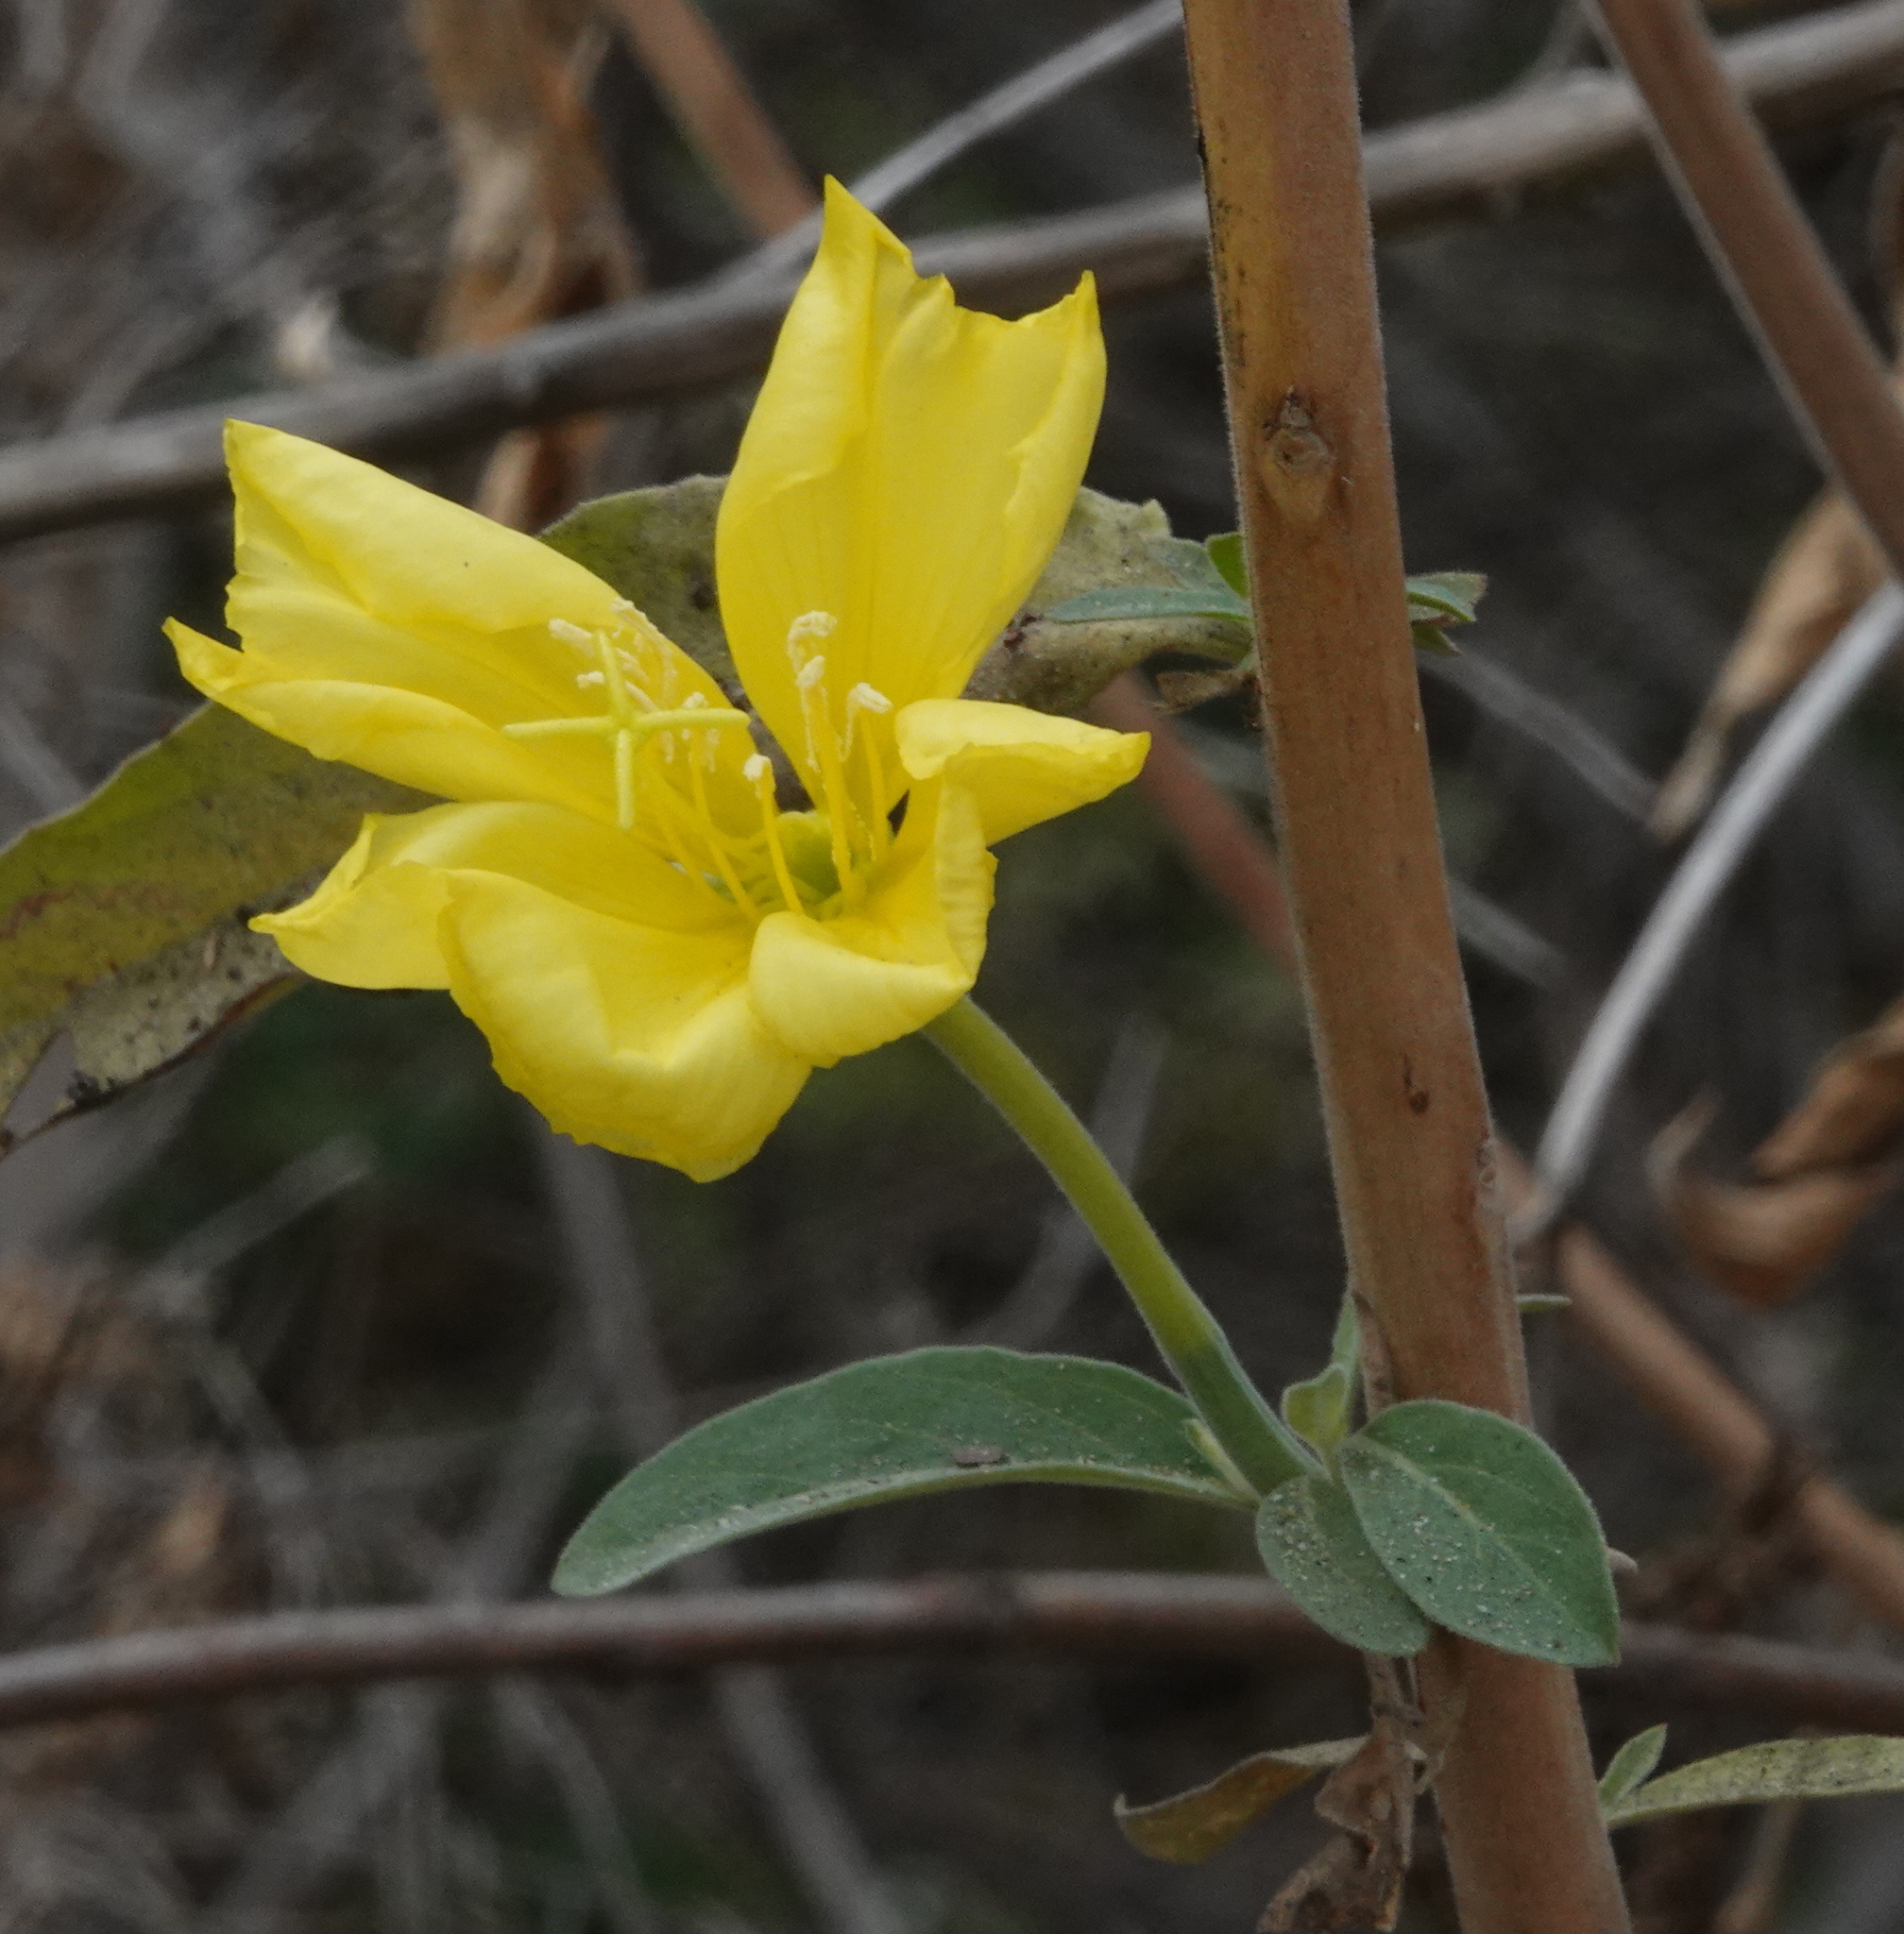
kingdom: Plantae
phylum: Tracheophyta
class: Magnoliopsida
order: Myrtales
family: Onagraceae
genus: Oenothera
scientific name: Oenothera elata
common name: Hooker's evening-primrose
